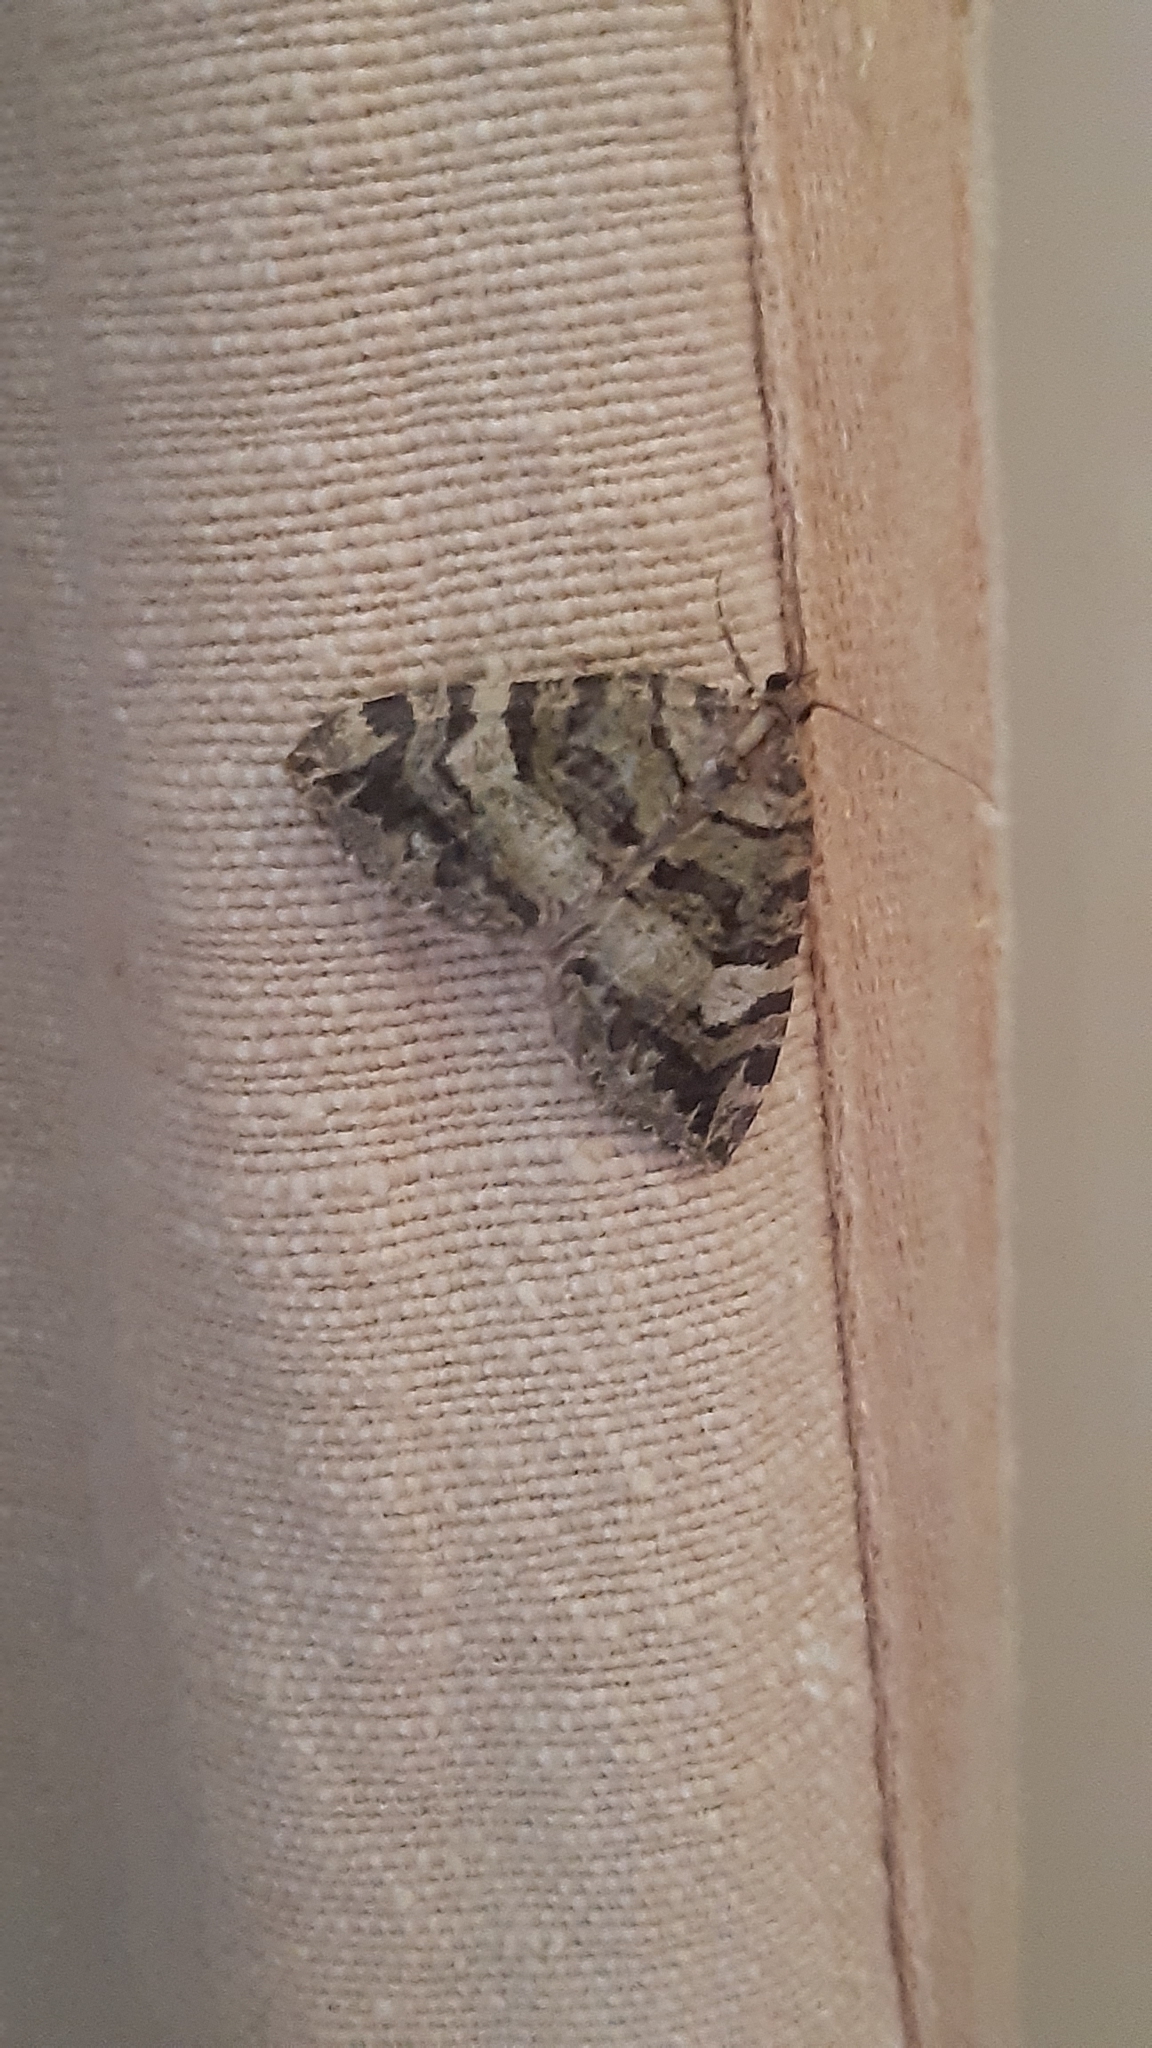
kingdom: Animalia
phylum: Arthropoda
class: Insecta
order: Lepidoptera
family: Geometridae
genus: Hydriomena
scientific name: Hydriomena furcata
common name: July highflyer
